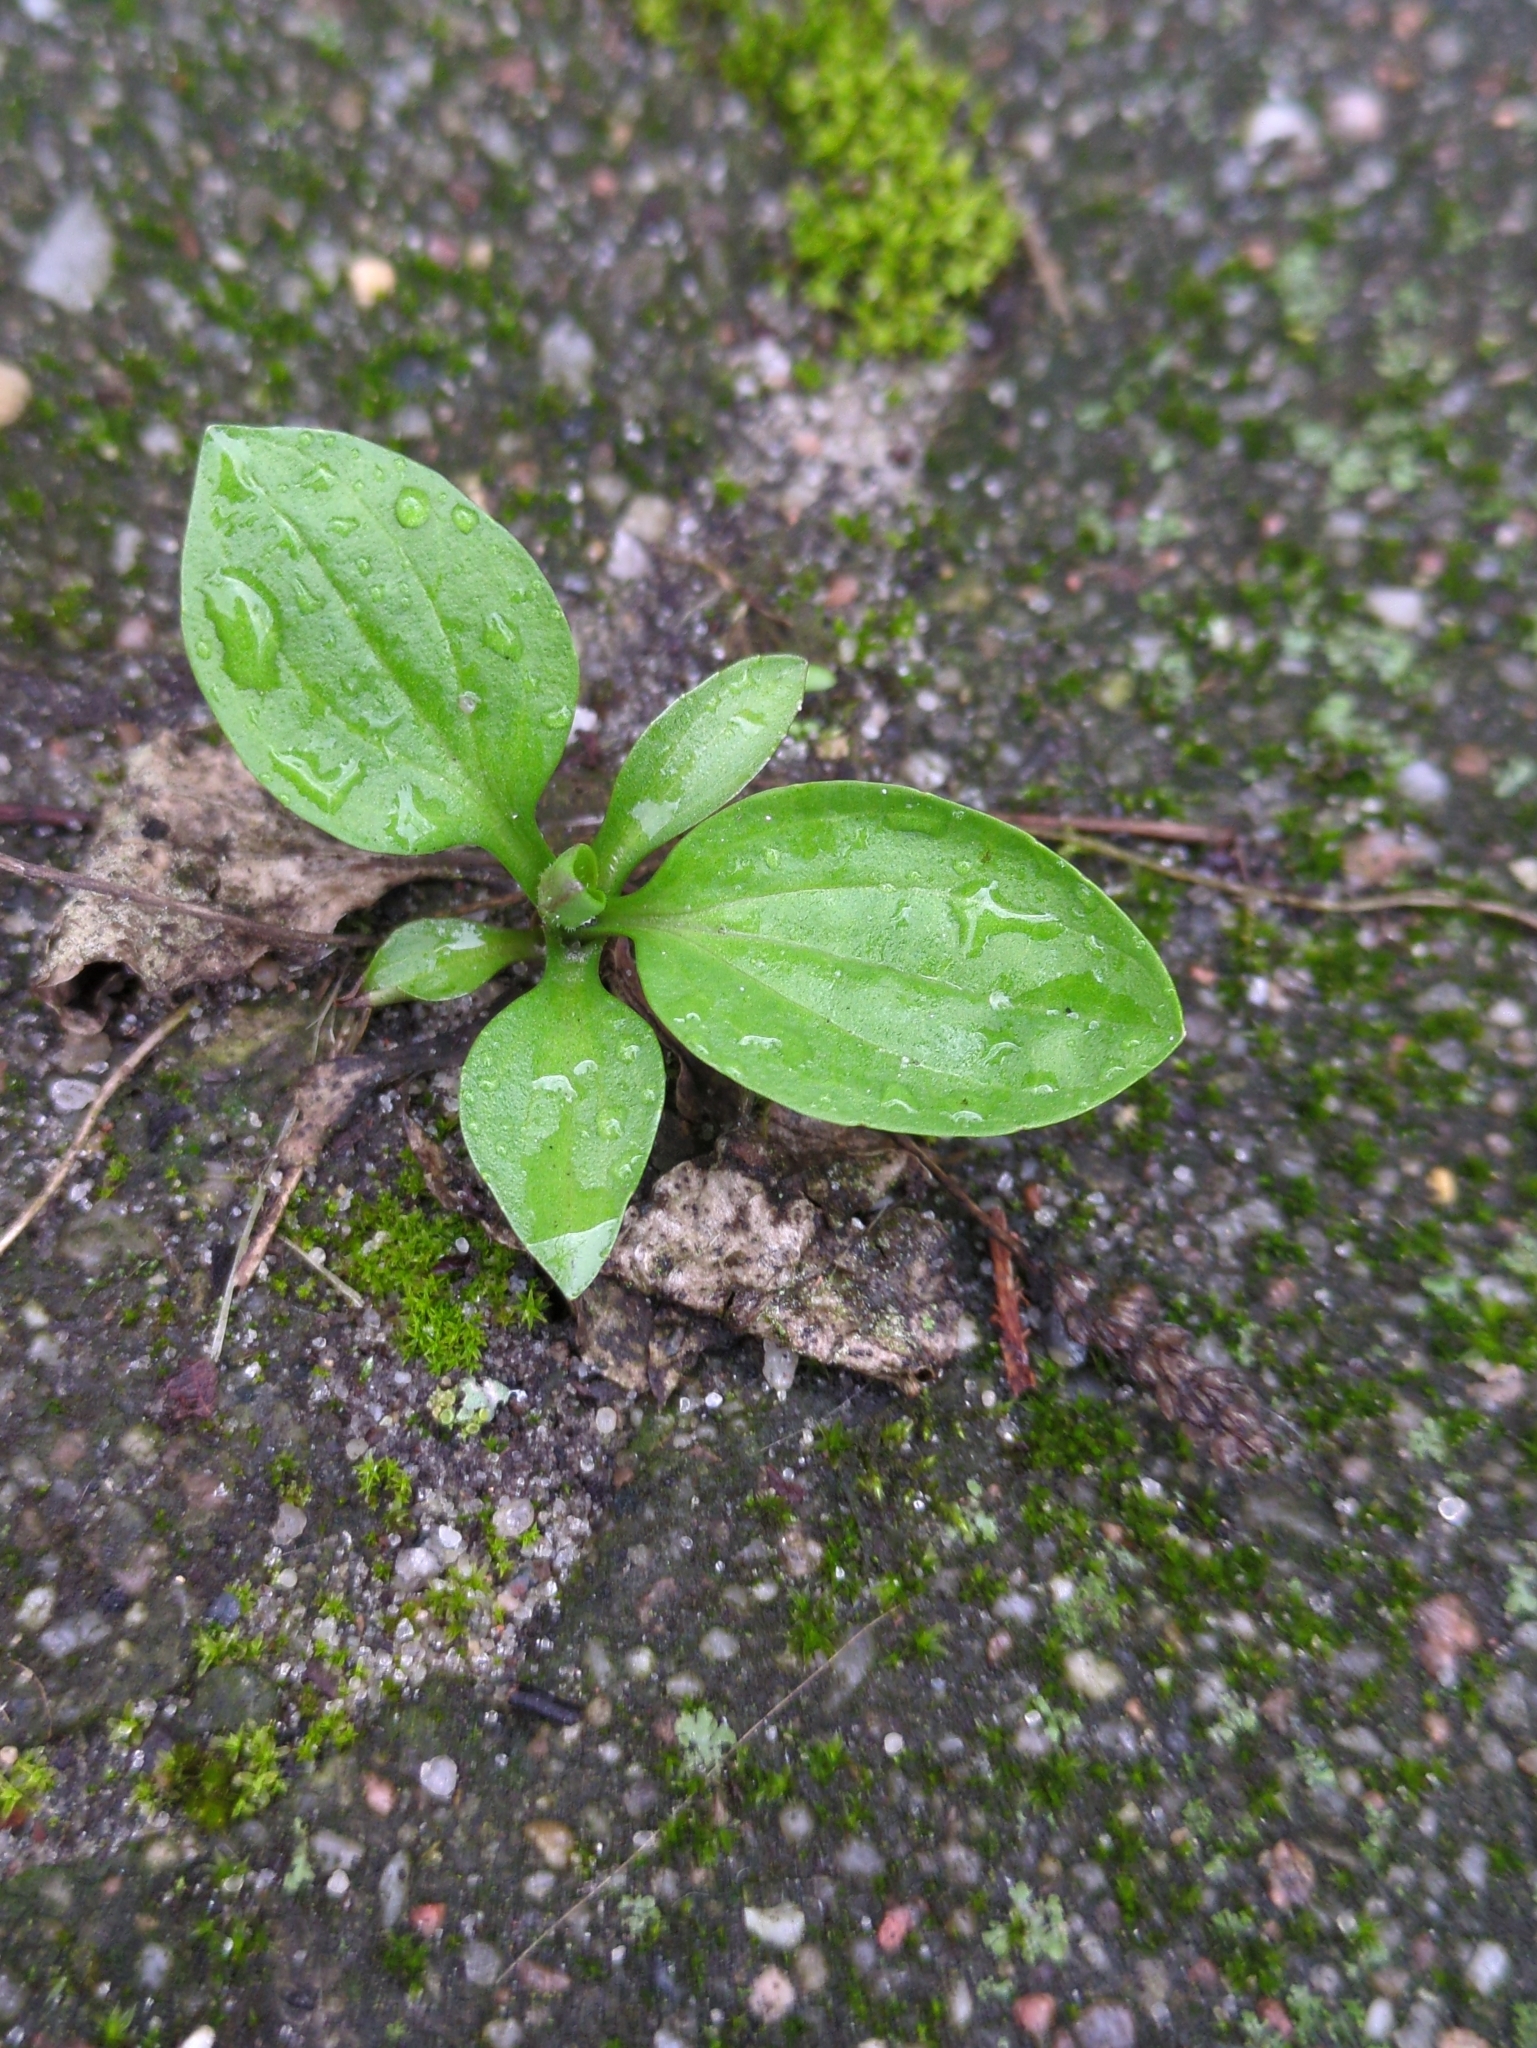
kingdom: Plantae
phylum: Tracheophyta
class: Magnoliopsida
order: Lamiales
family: Plantaginaceae
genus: Plantago
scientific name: Plantago major
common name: Common plantain
